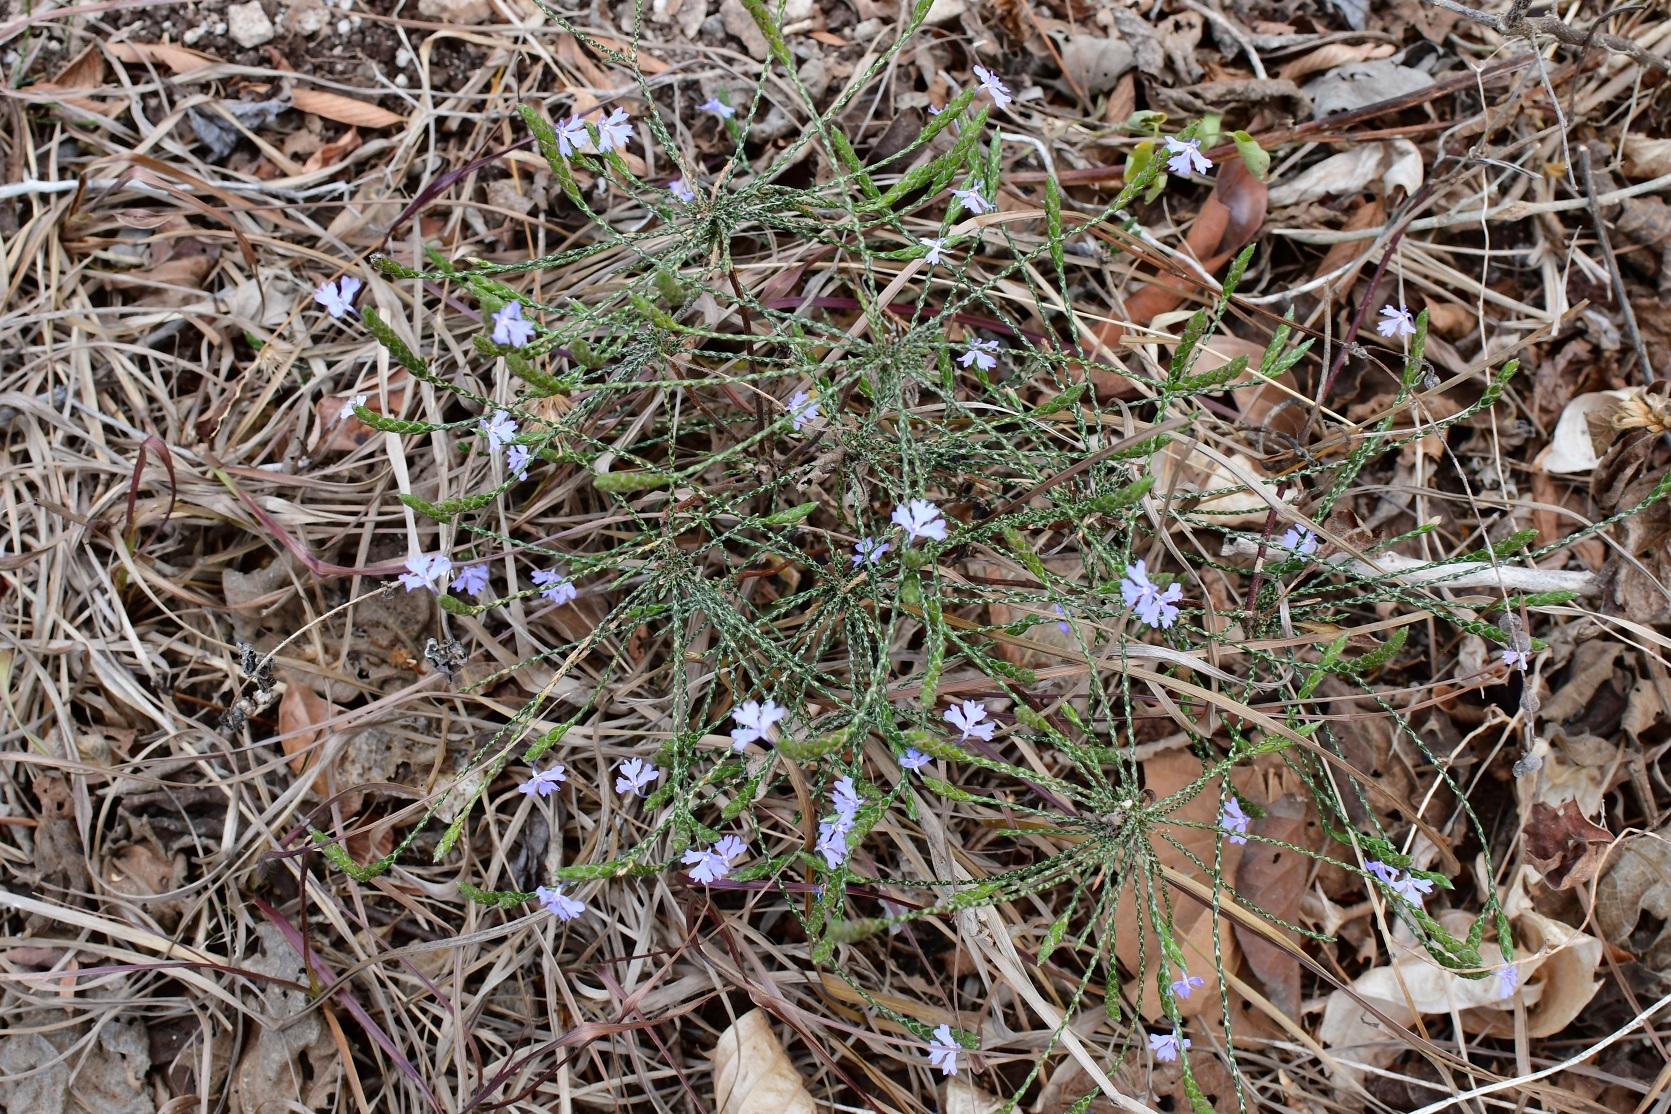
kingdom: Plantae
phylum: Tracheophyta
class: Magnoliopsida
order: Lamiales
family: Acanthaceae
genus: Elytraria
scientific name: Elytraria imbricata
